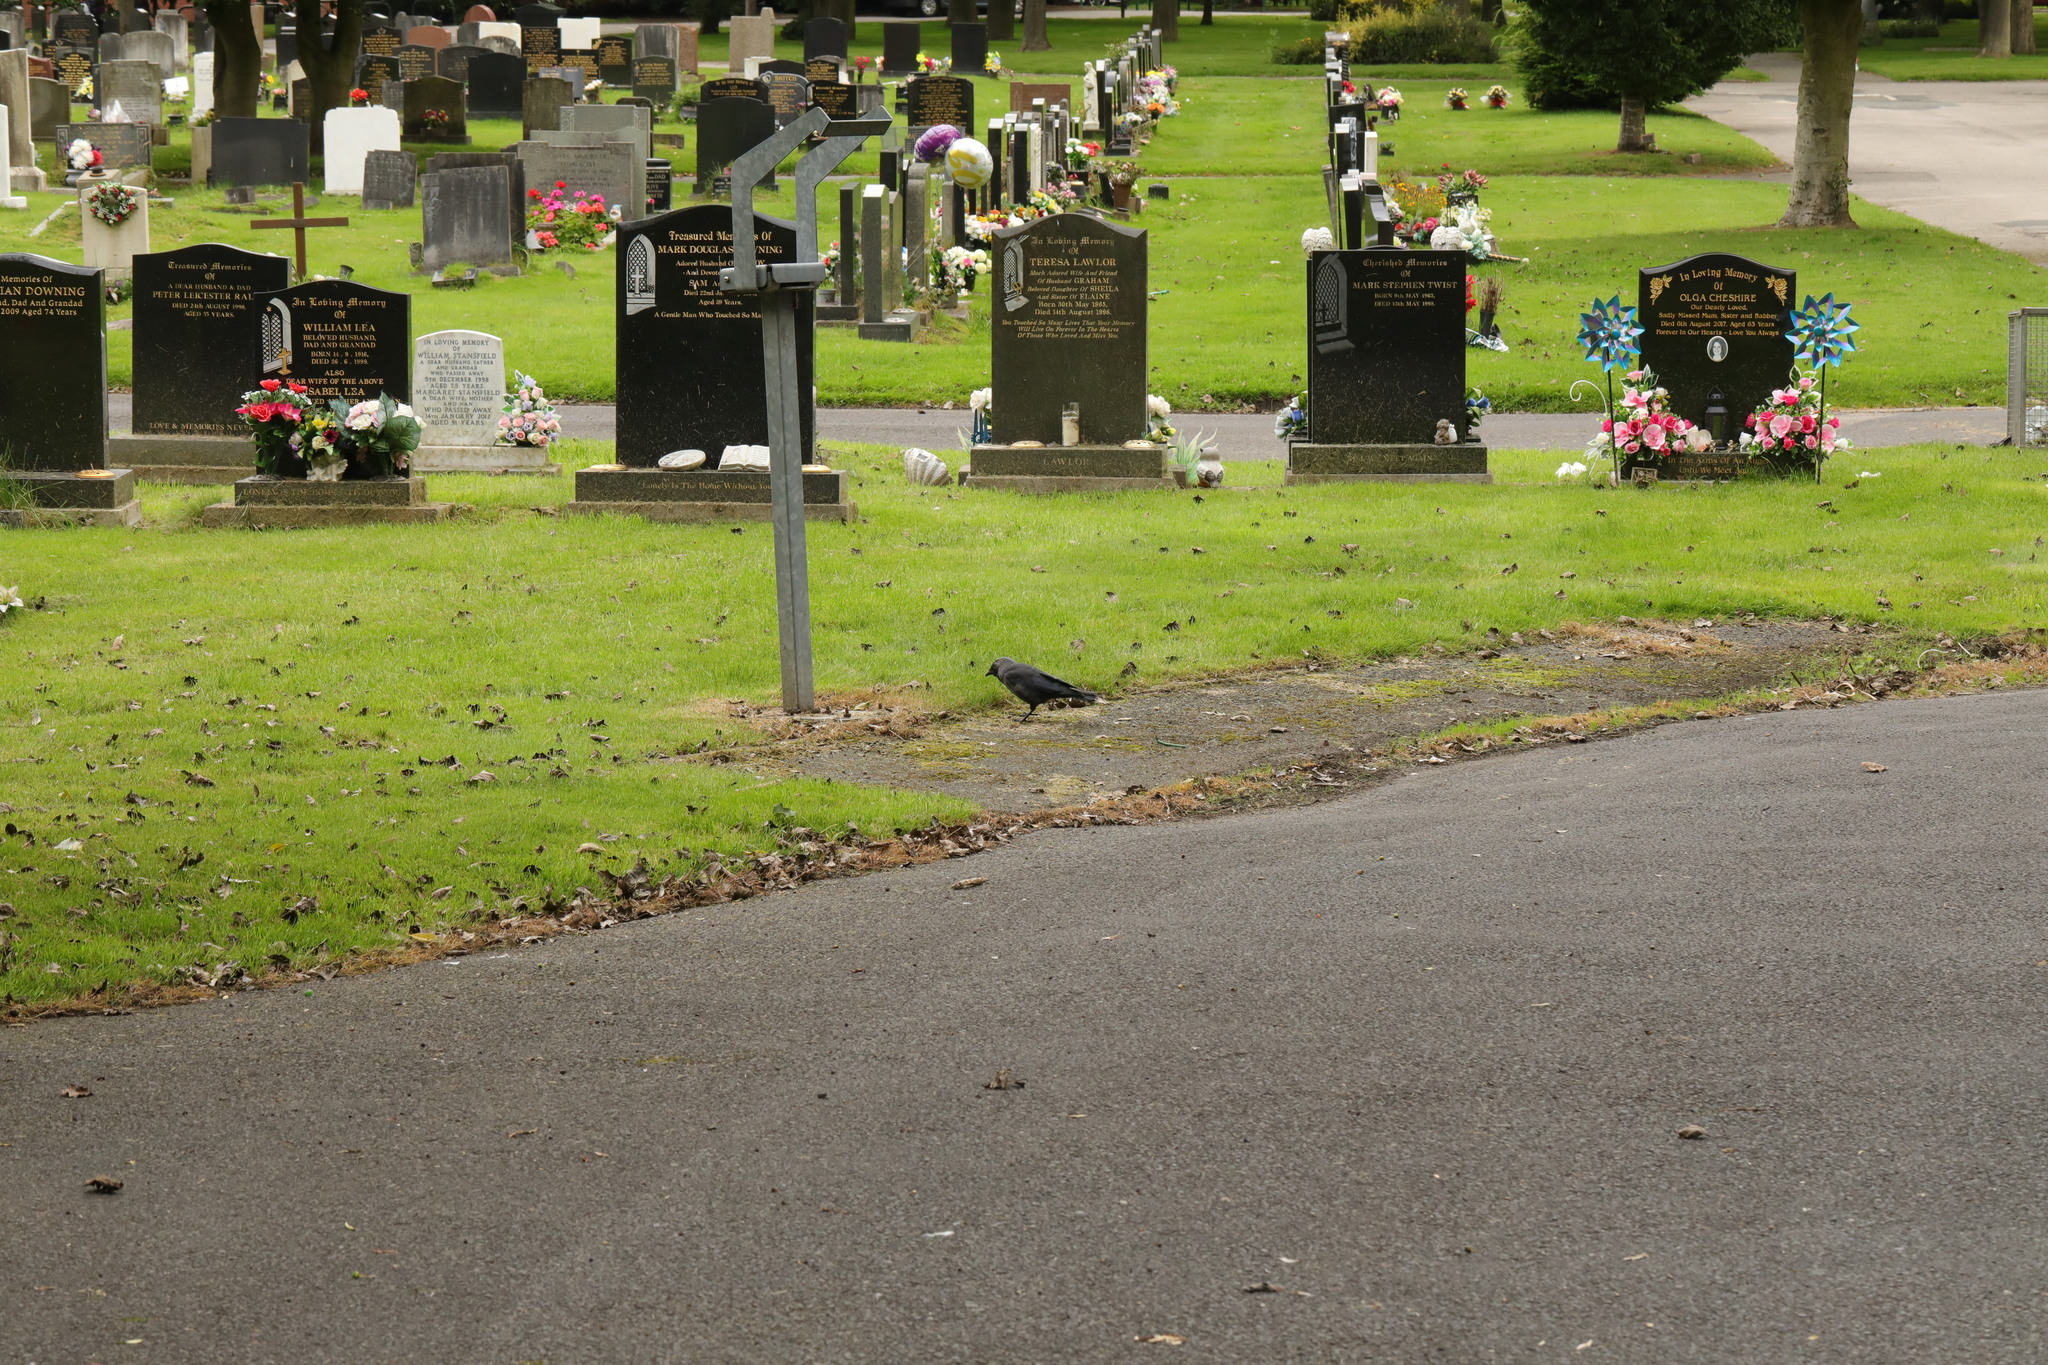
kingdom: Animalia
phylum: Chordata
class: Aves
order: Passeriformes
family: Corvidae
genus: Coloeus
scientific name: Coloeus monedula
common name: Western jackdaw
